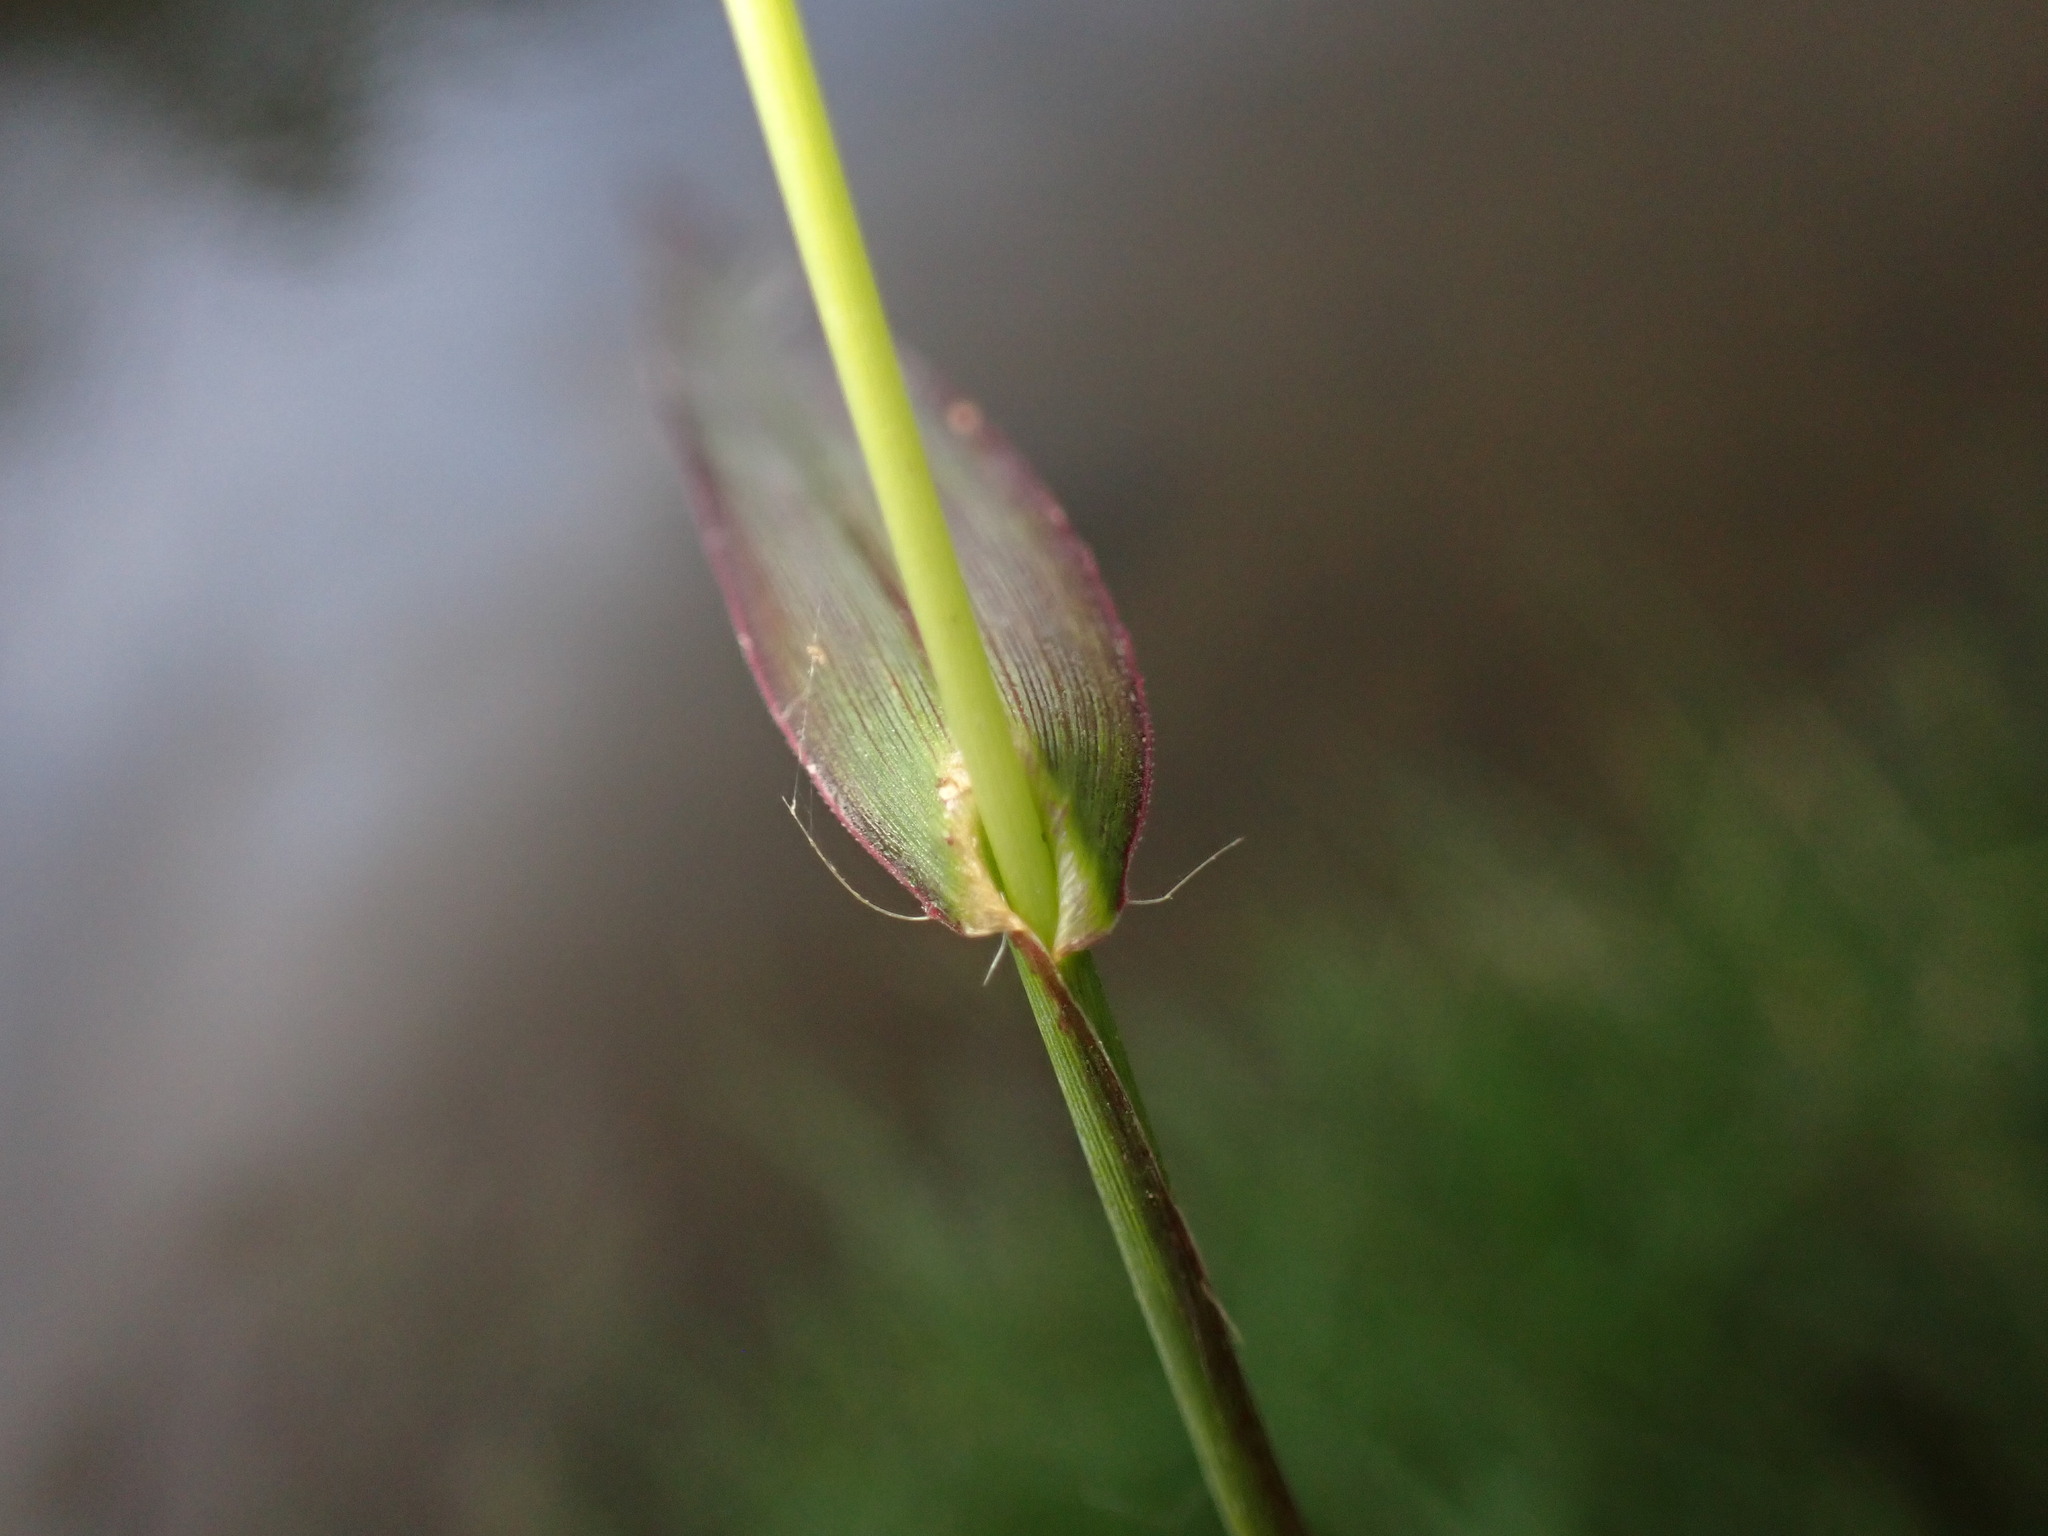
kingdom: Plantae
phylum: Tracheophyta
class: Liliopsida
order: Poales
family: Poaceae
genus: Echinochloa
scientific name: Echinochloa crus-galli
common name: Cockspur
